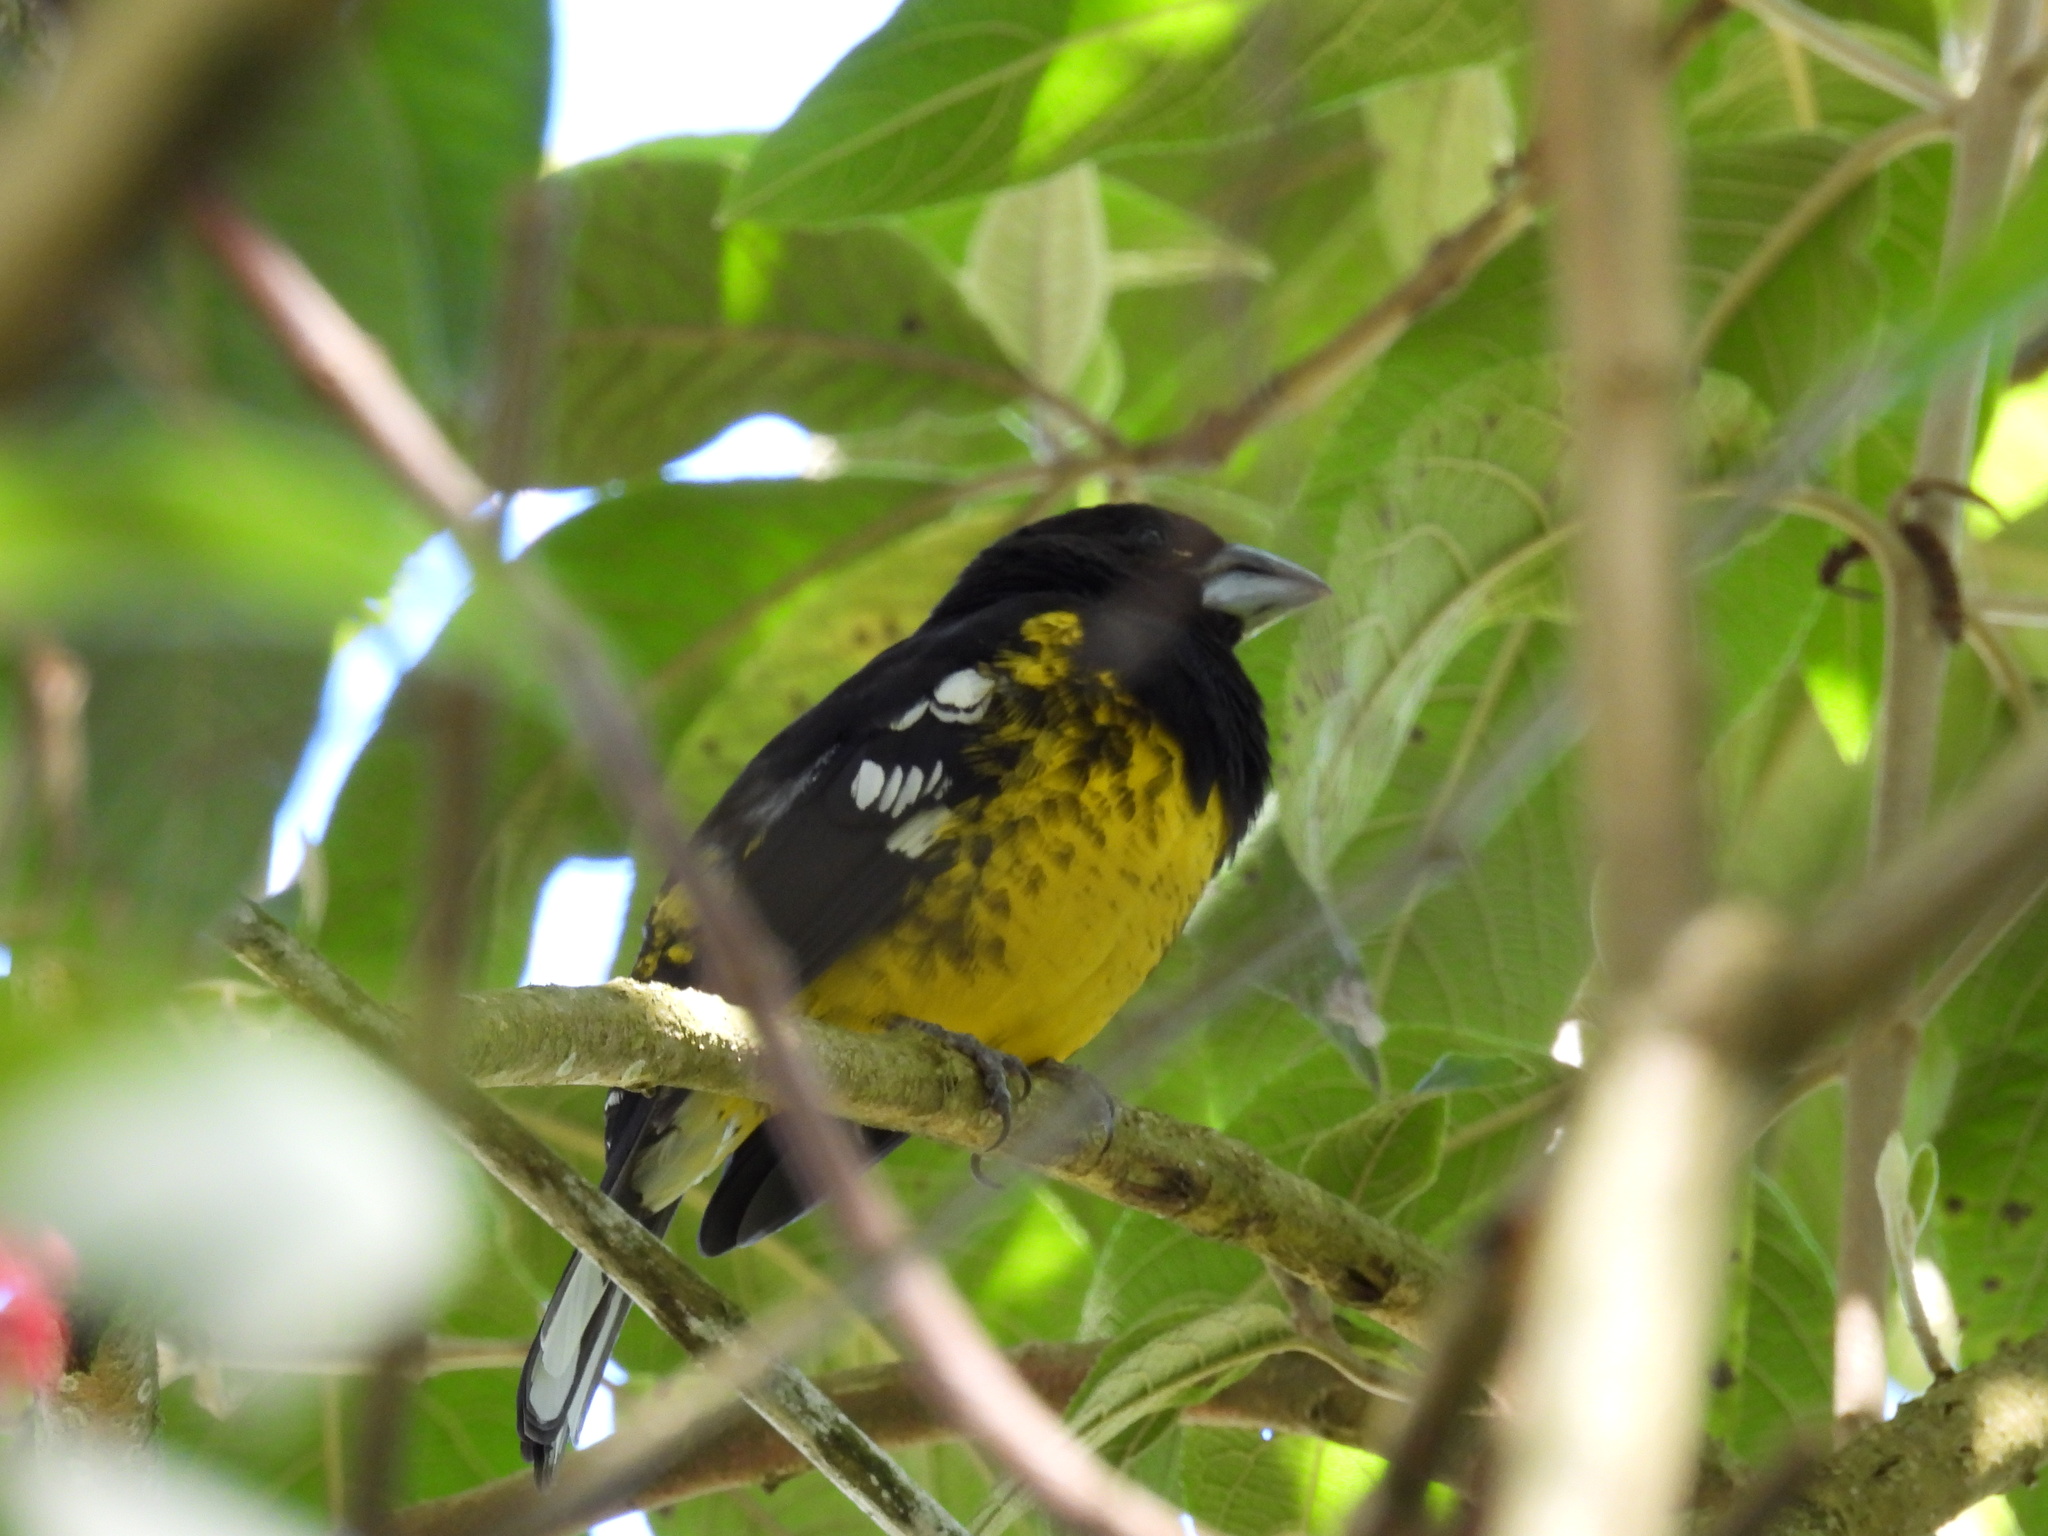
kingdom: Animalia
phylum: Chordata
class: Aves
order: Passeriformes
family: Cardinalidae
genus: Pheucticus
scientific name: Pheucticus aureoventris
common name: Black-backed grosbeak
